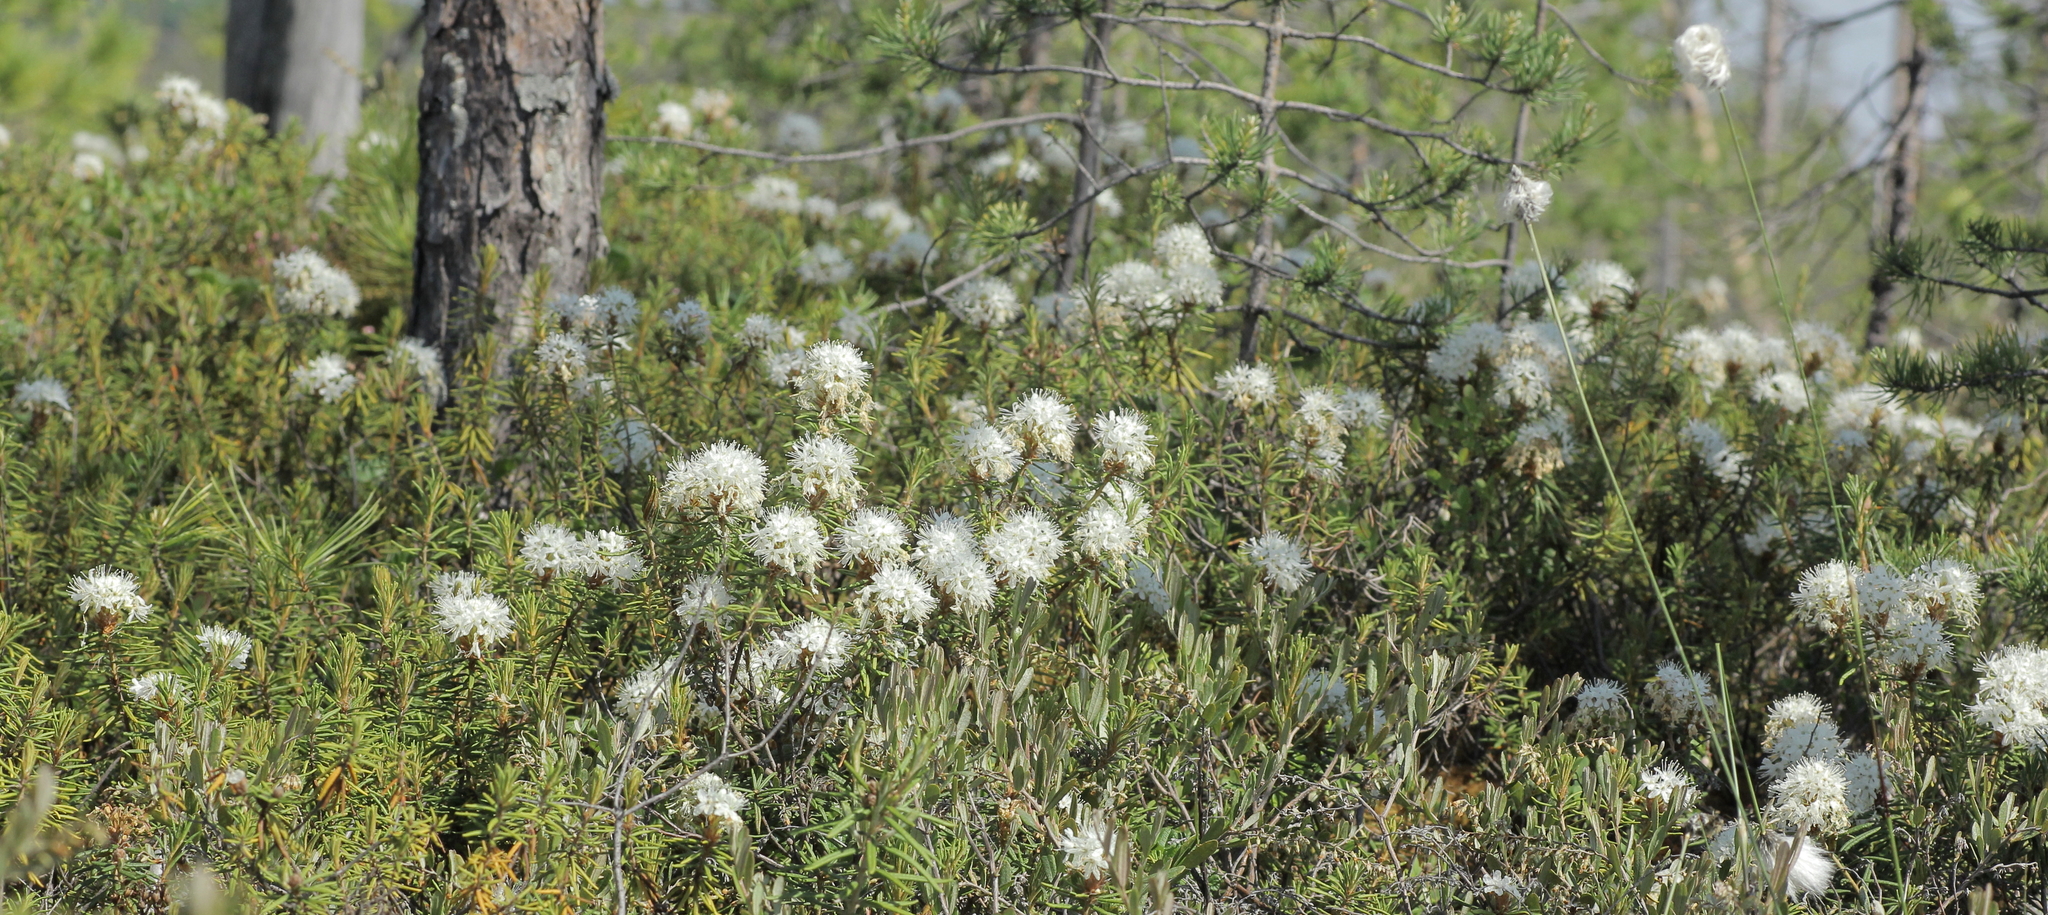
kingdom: Plantae
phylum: Tracheophyta
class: Magnoliopsida
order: Ericales
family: Ericaceae
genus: Rhododendron
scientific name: Rhododendron tomentosum
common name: Marsh labrador tea
